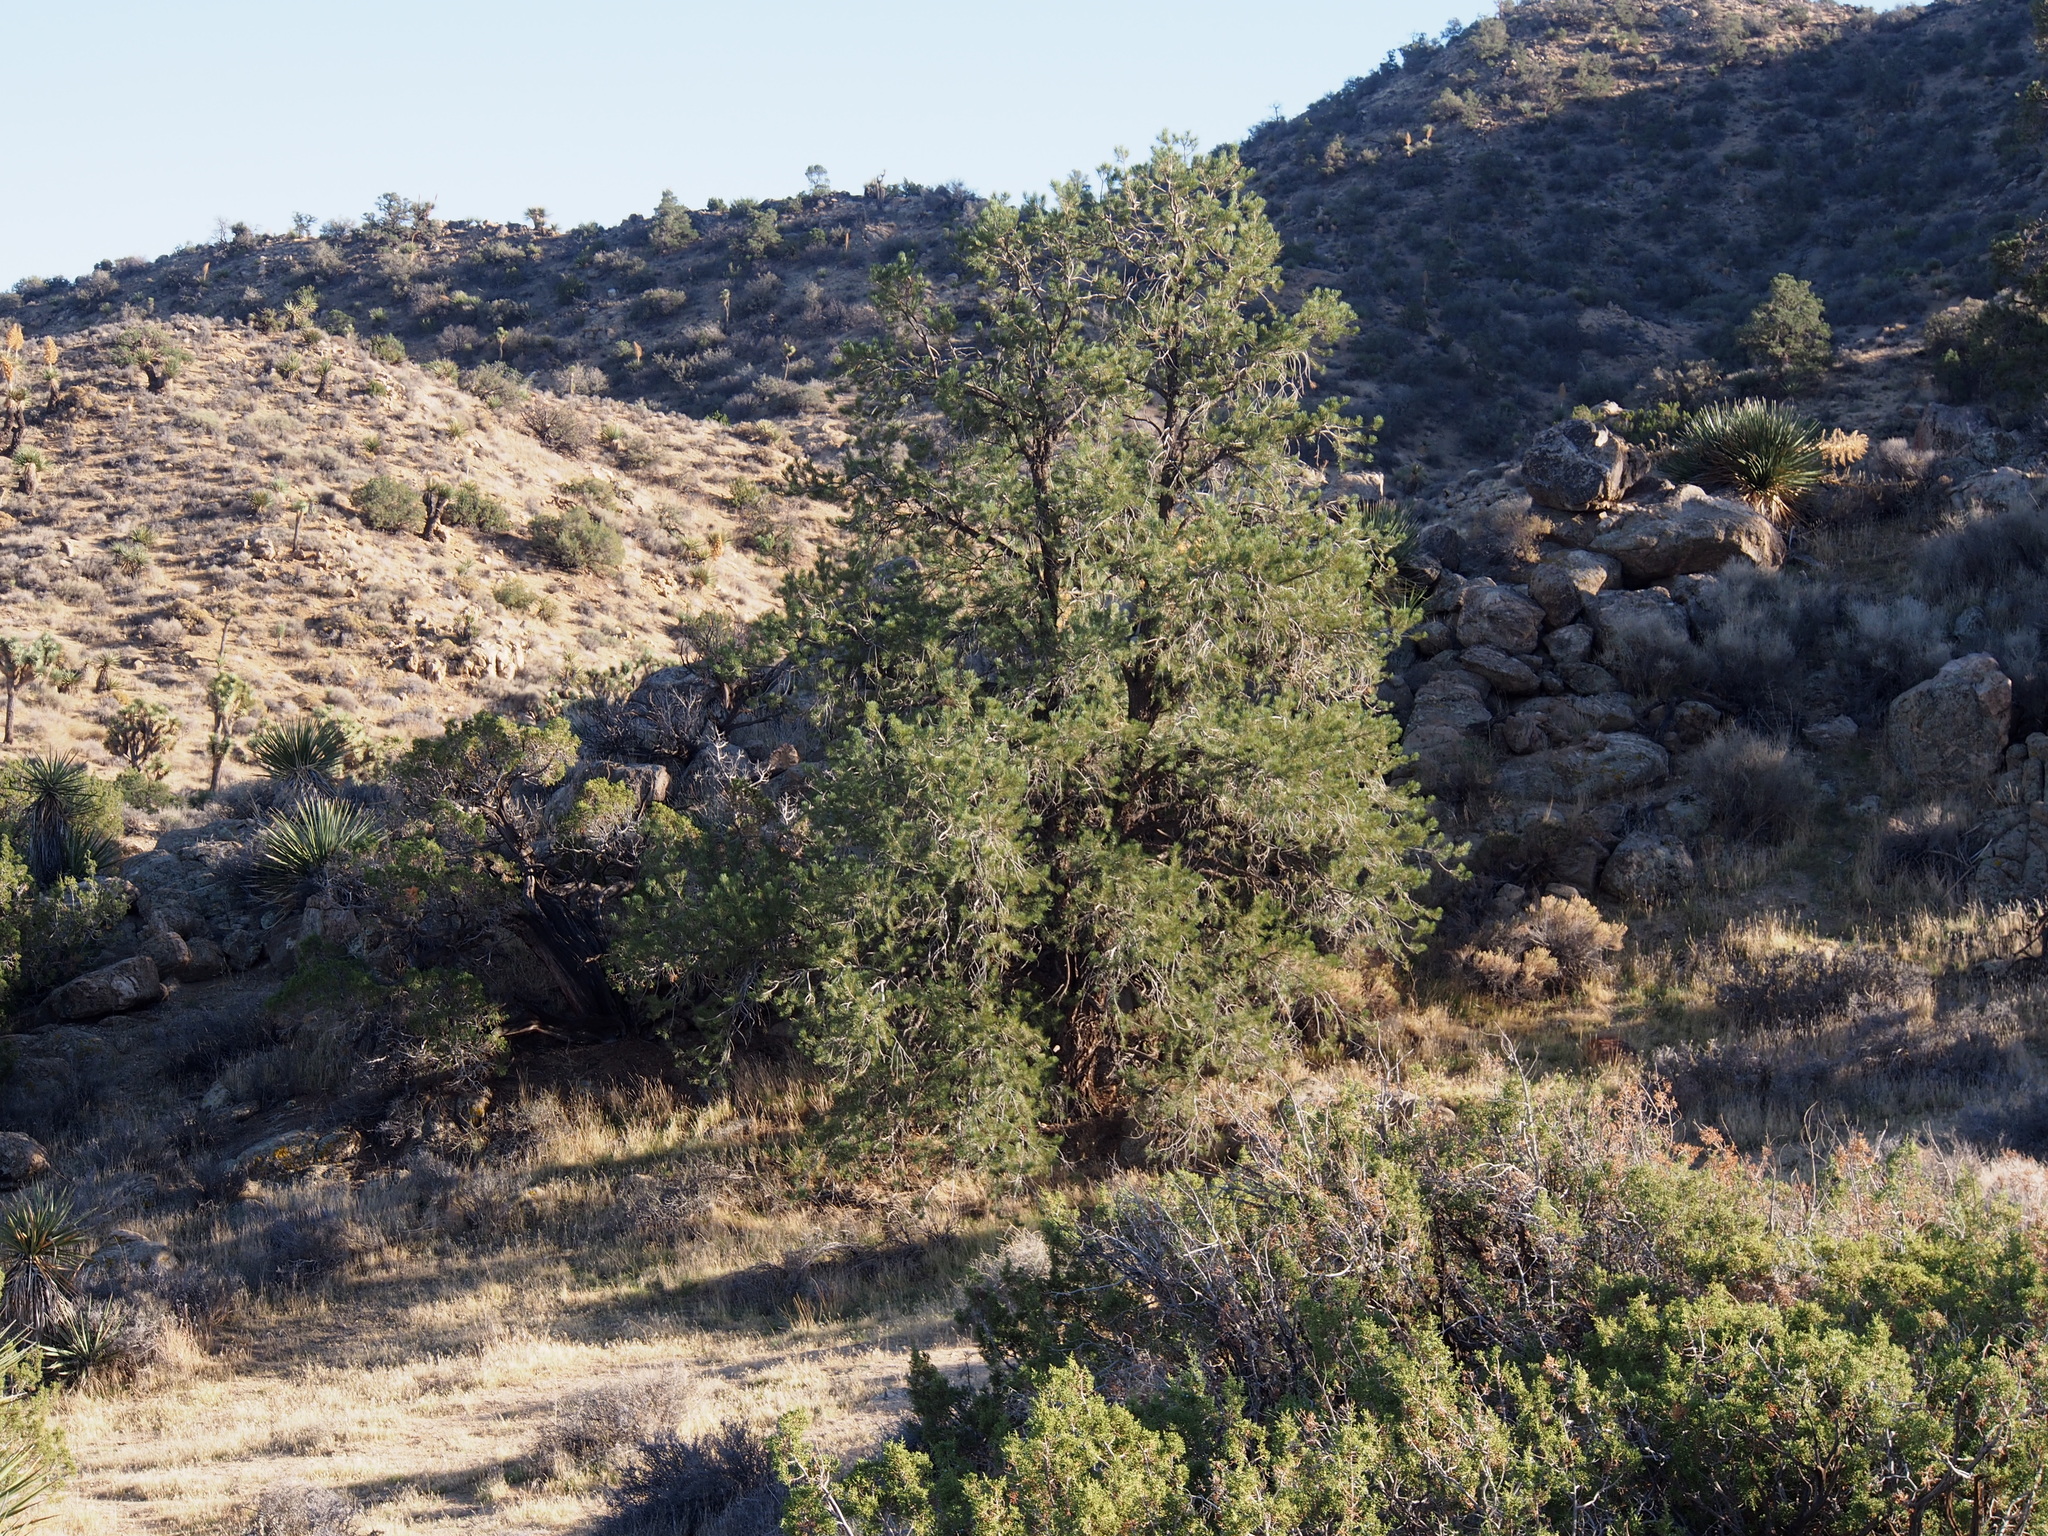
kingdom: Plantae
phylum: Tracheophyta
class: Pinopsida
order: Pinales
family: Pinaceae
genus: Pinus
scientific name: Pinus monophylla
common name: One-leaved nut pine
